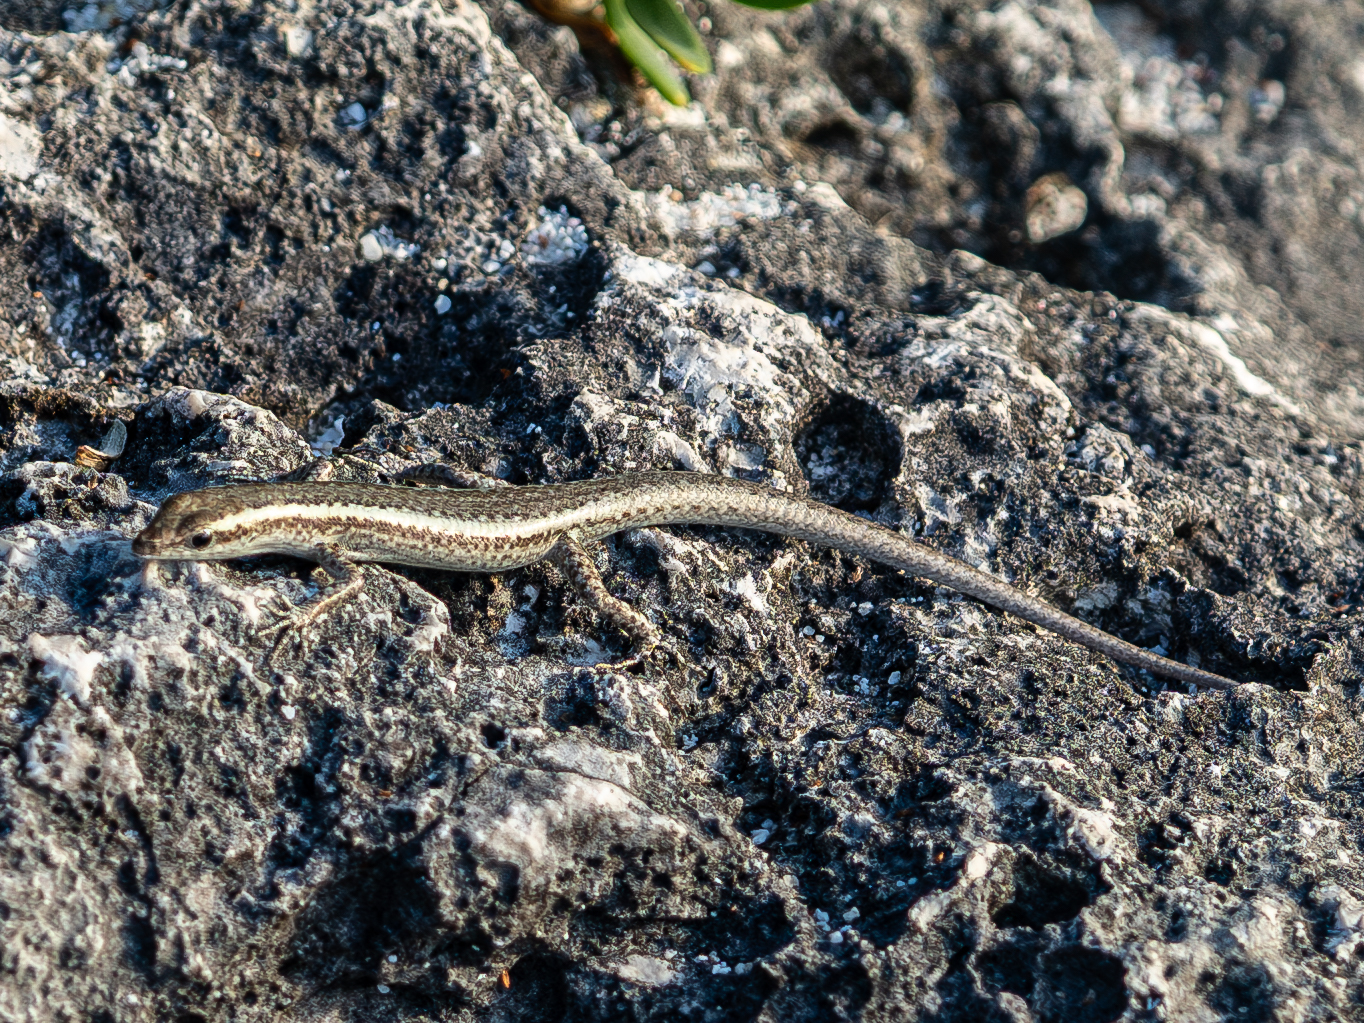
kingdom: Animalia
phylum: Chordata
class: Squamata
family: Scincidae
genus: Cryptoblepharus
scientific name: Cryptoblepharus novocaledonicus
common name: New caledonian shore skink
